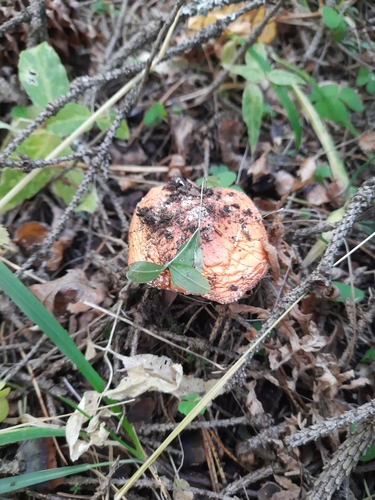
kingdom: Fungi
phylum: Basidiomycota
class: Agaricomycetes
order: Agaricales
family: Amanitaceae
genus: Amanita
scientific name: Amanita muscaria
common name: Fly agaric
